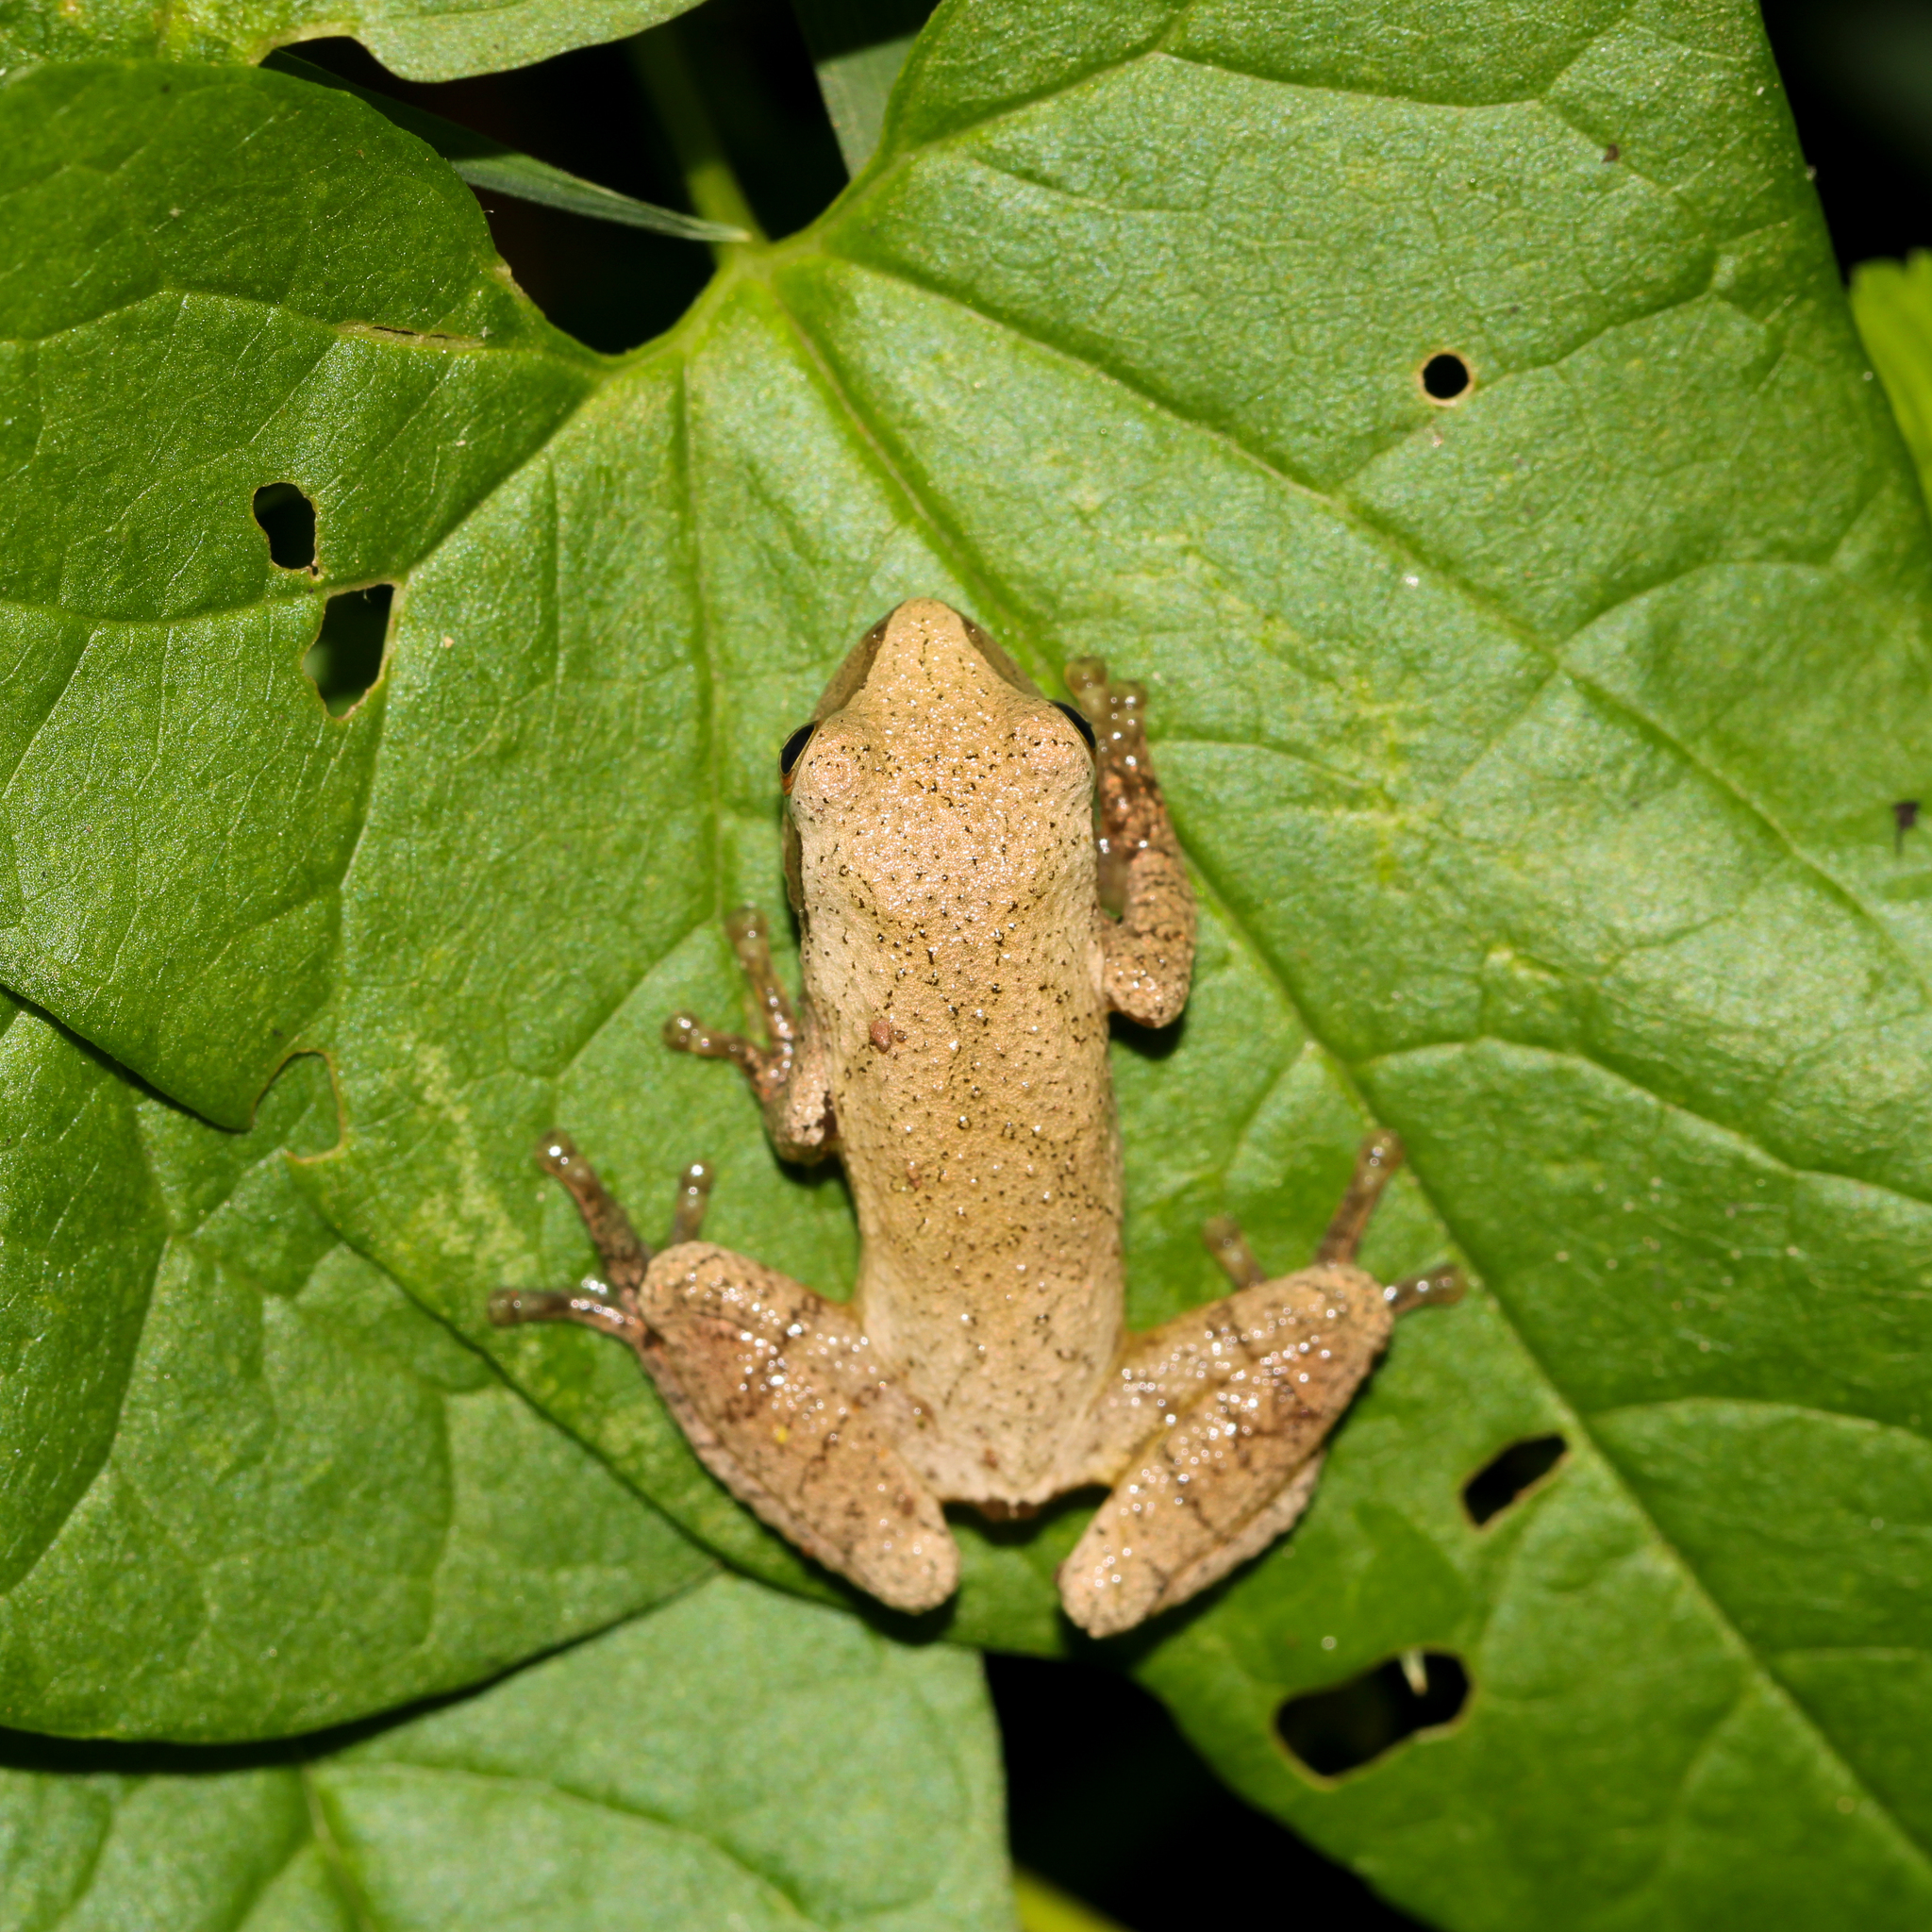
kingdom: Animalia
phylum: Chordata
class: Amphibia
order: Anura
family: Hylidae
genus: Pseudacris
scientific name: Pseudacris crucifer
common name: Spring peeper
